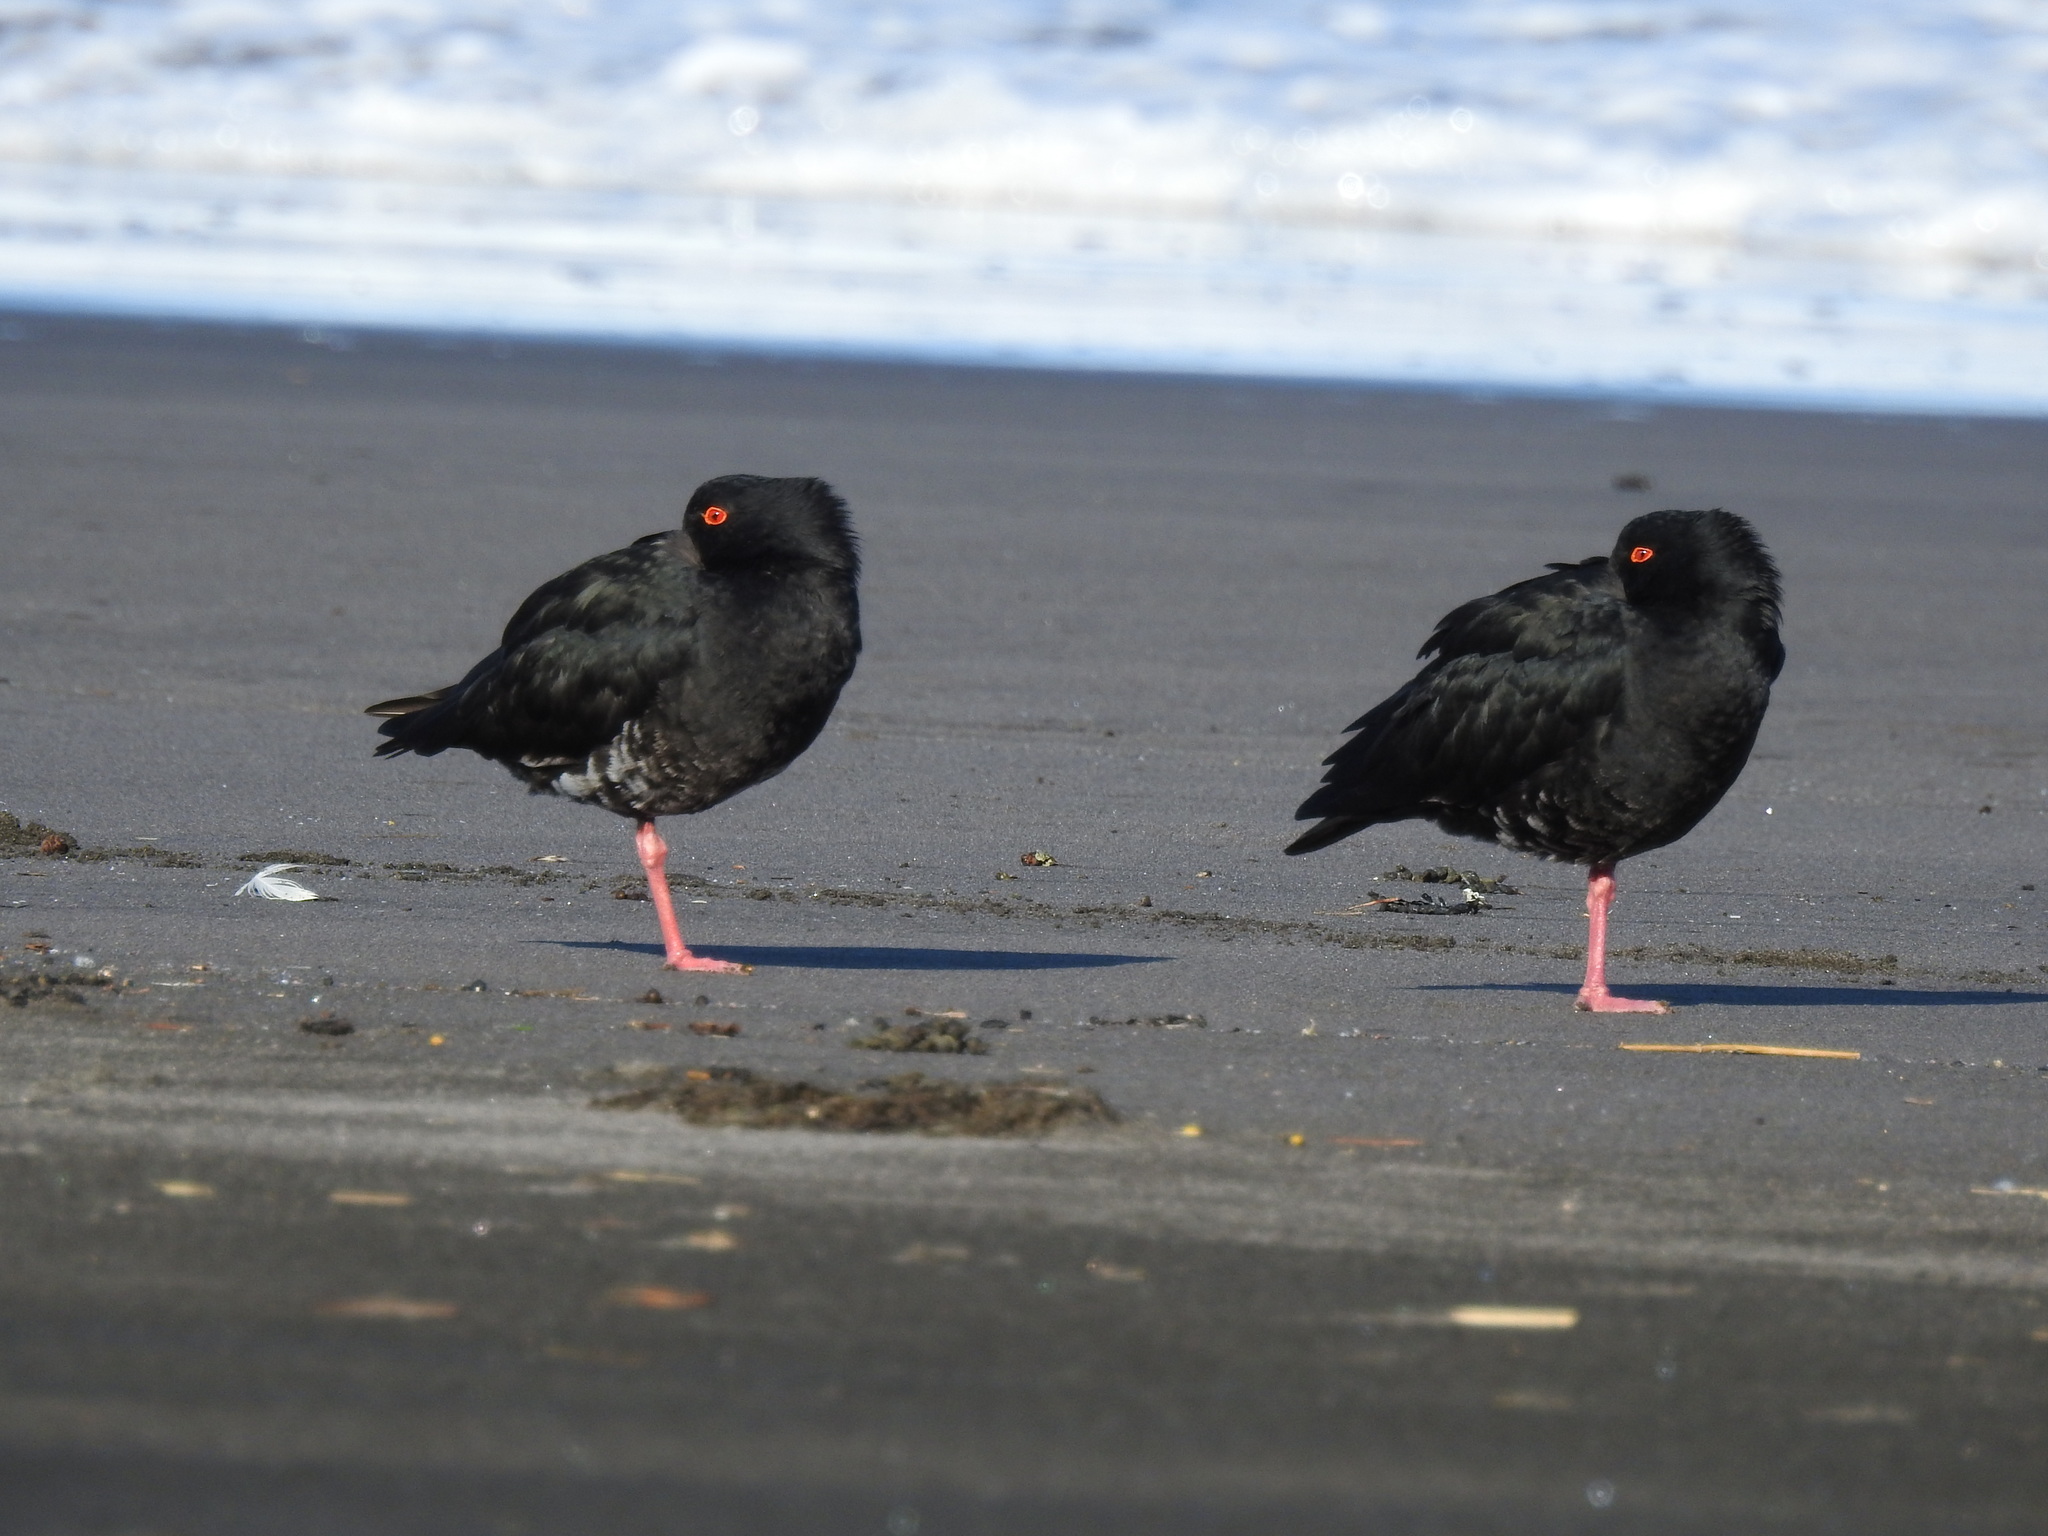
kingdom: Animalia
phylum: Chordata
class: Aves
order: Charadriiformes
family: Haematopodidae
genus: Haematopus
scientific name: Haematopus unicolor
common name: Variable oystercatcher
